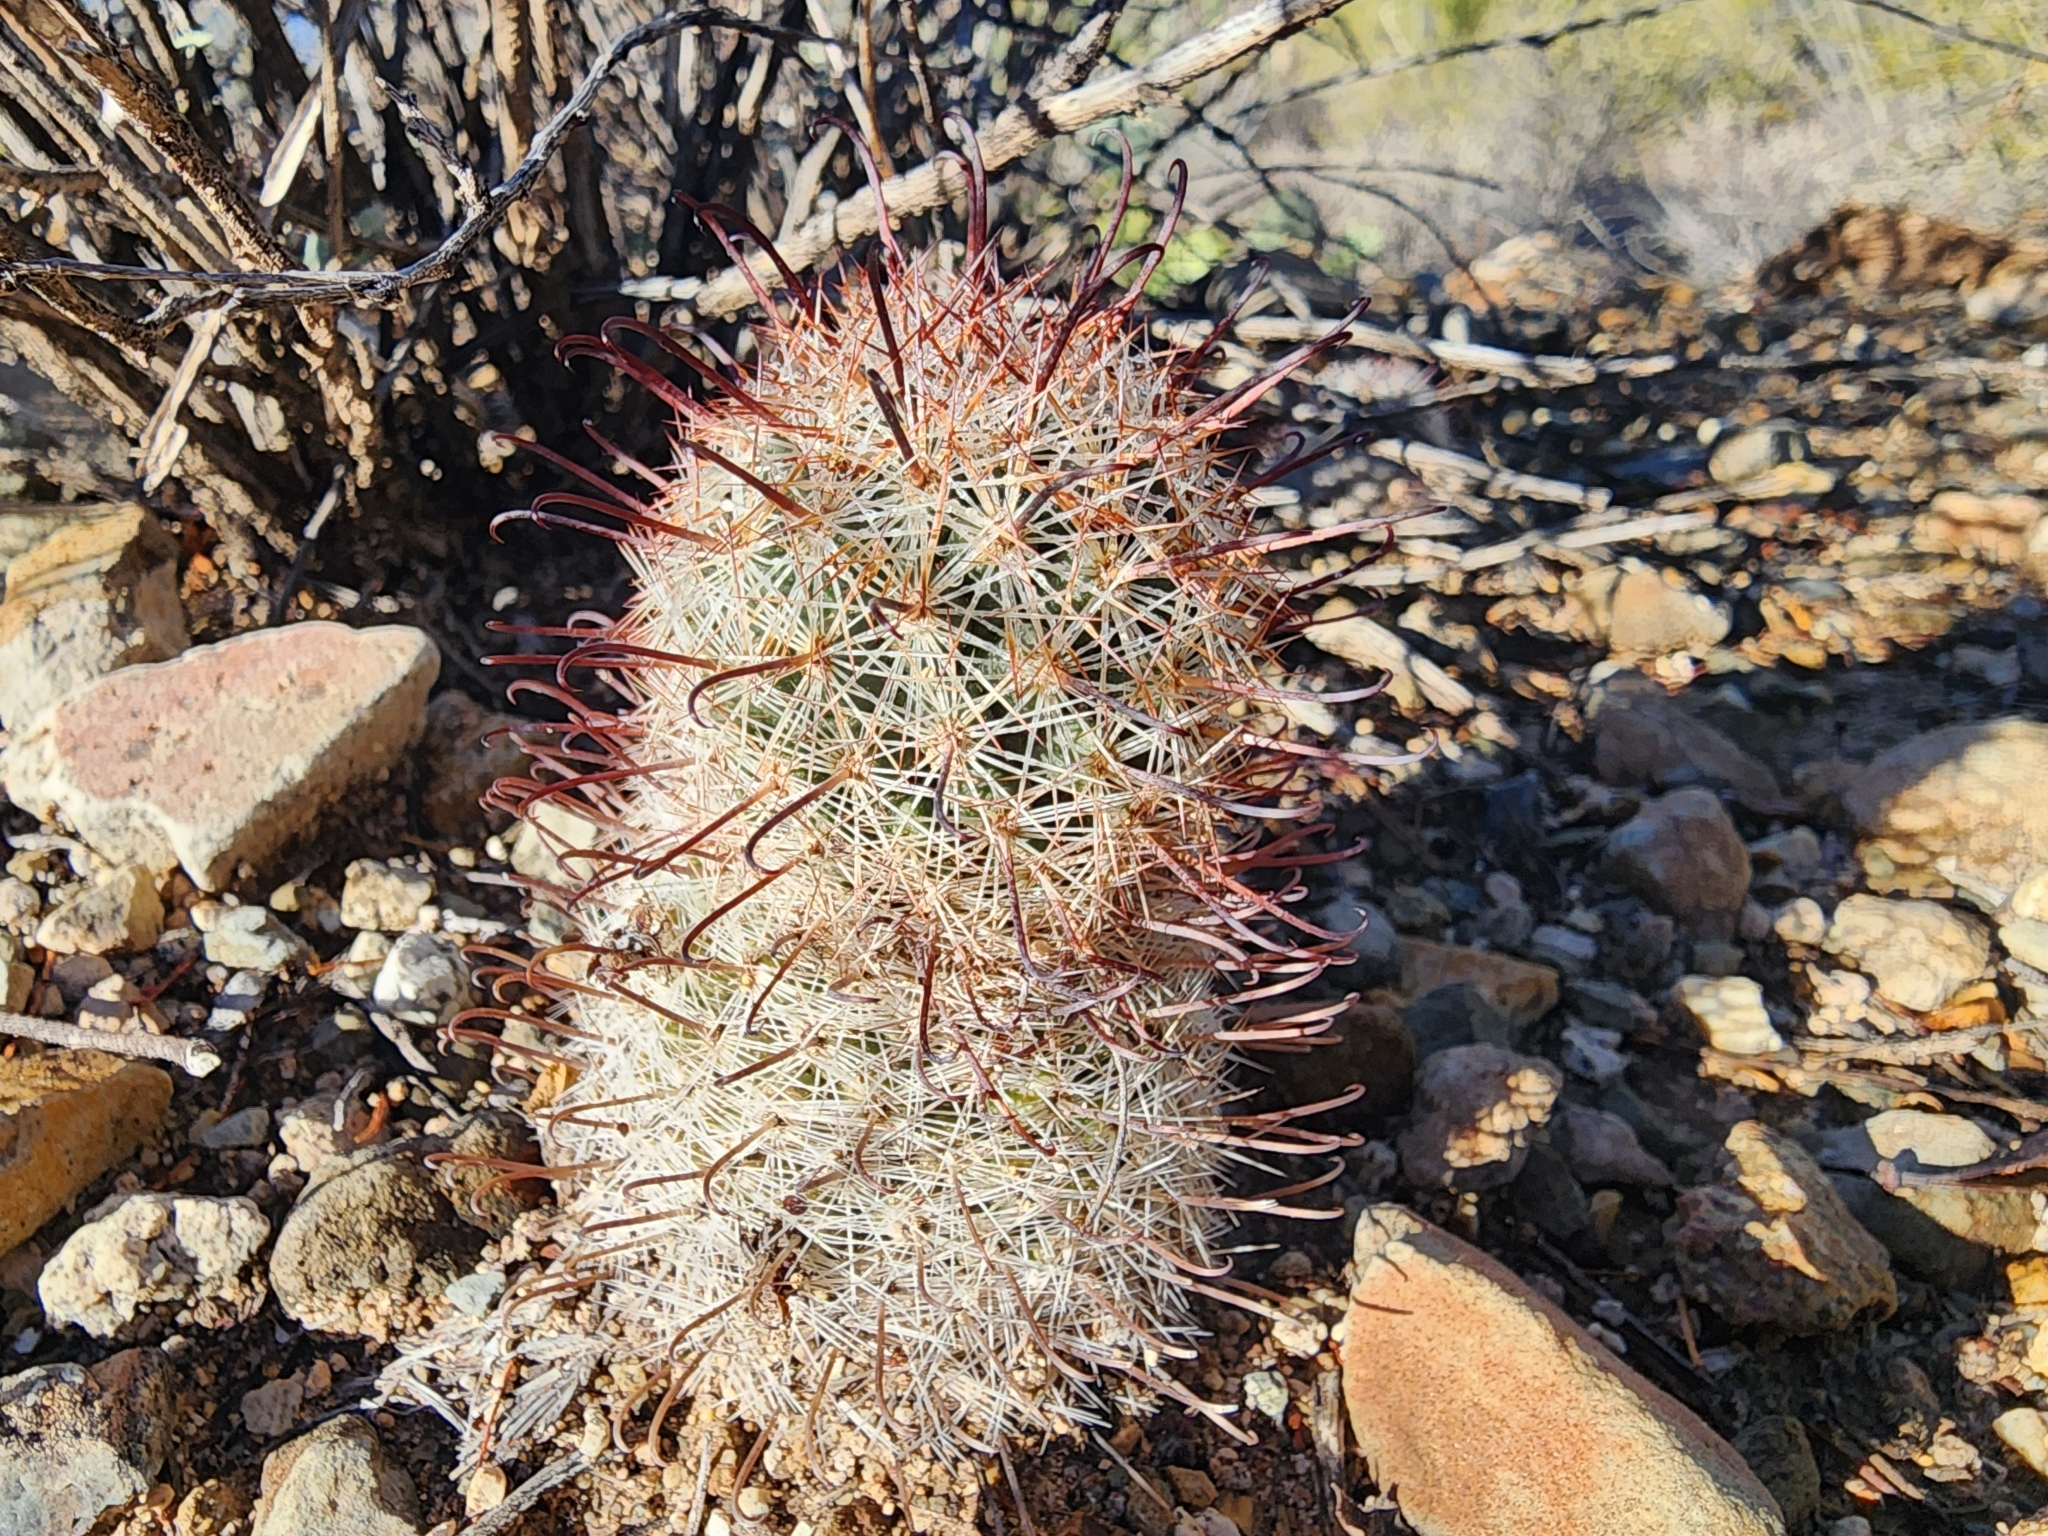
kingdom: Plantae
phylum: Tracheophyta
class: Magnoliopsida
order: Caryophyllales
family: Cactaceae
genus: Cochemiea
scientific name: Cochemiea grahamii
